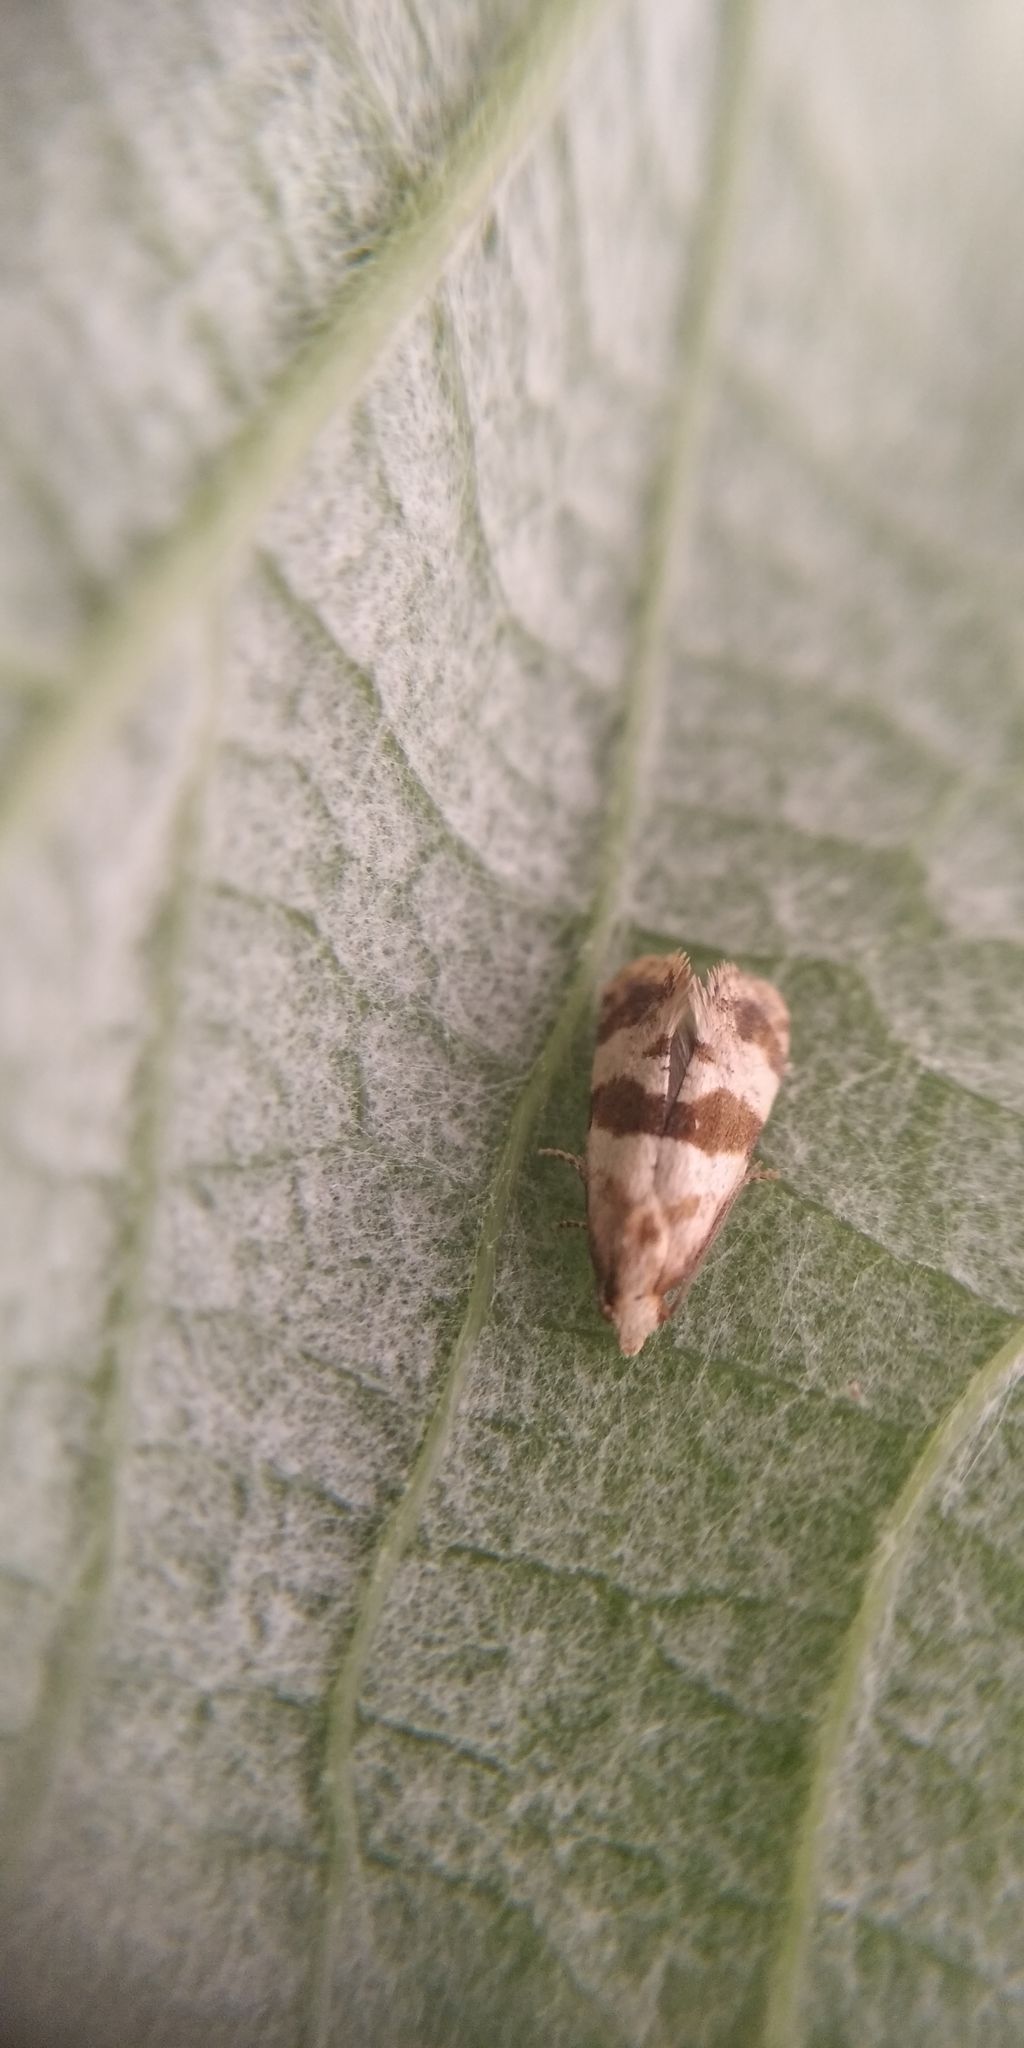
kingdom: Animalia
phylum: Arthropoda
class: Insecta
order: Lepidoptera
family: Tortricidae
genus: Phalonidia
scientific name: Phalonidia contractana
